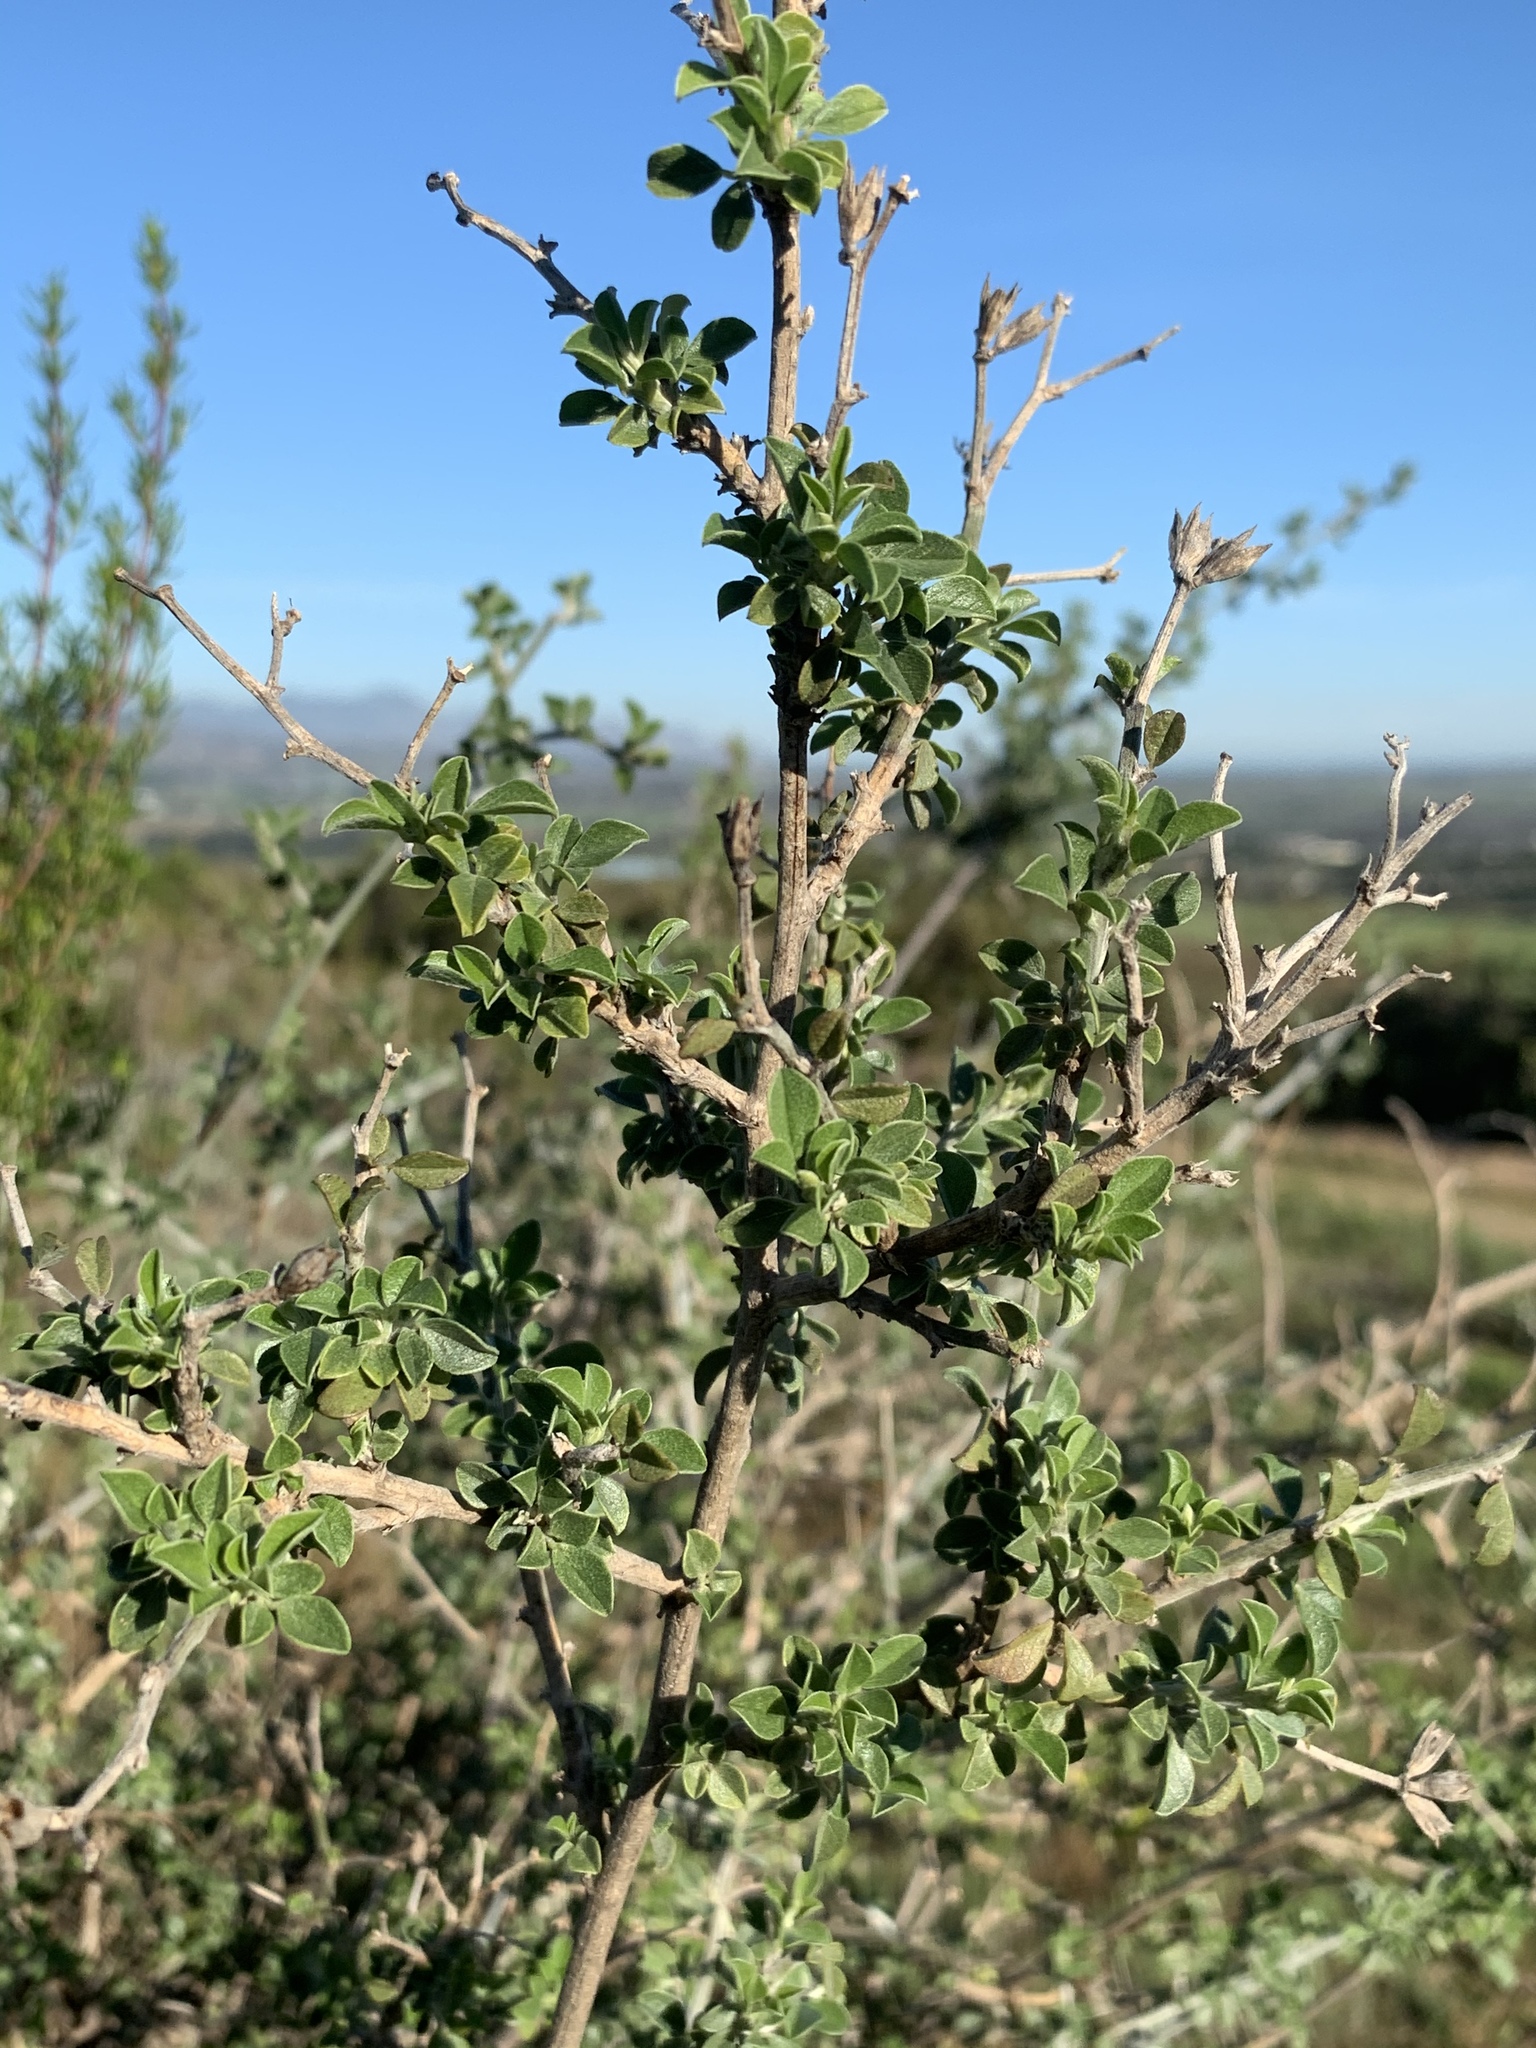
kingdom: Plantae
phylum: Tracheophyta
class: Magnoliopsida
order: Fabales
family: Fabaceae
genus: Psoralea
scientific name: Psoralea hirta
